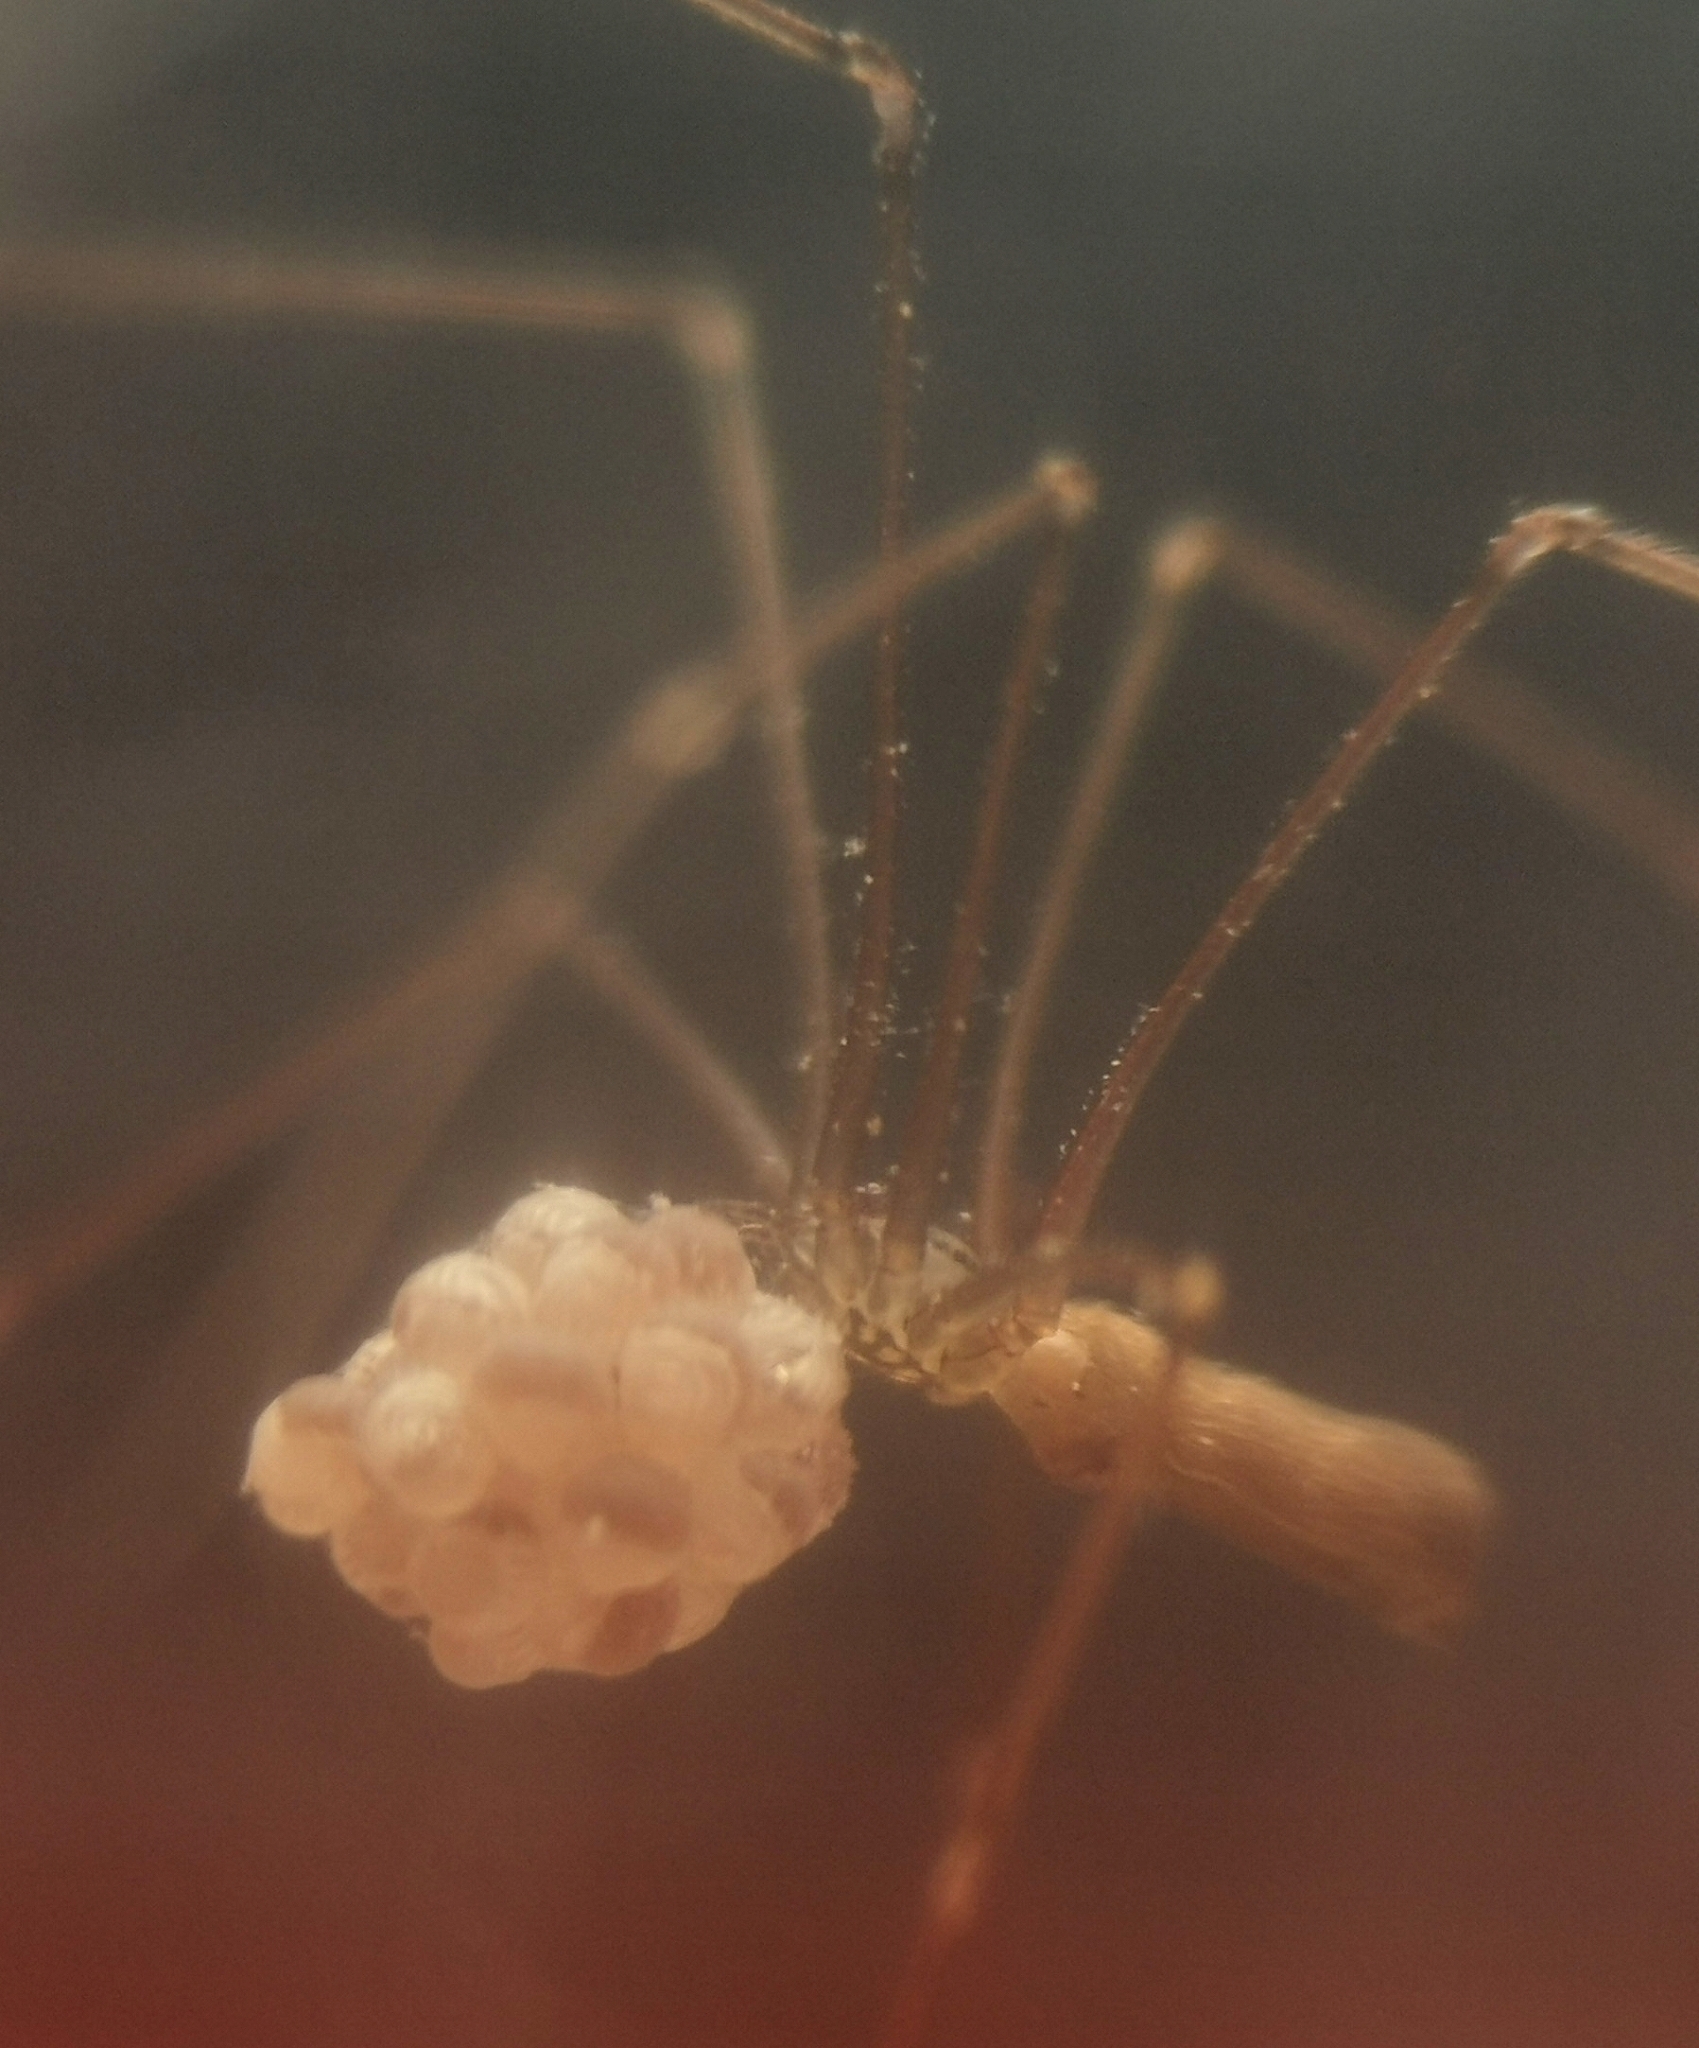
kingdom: Animalia
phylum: Arthropoda
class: Arachnida
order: Araneae
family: Pholcidae
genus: Pholcus
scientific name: Pholcus opilionoides
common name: Daddylongleg spider
